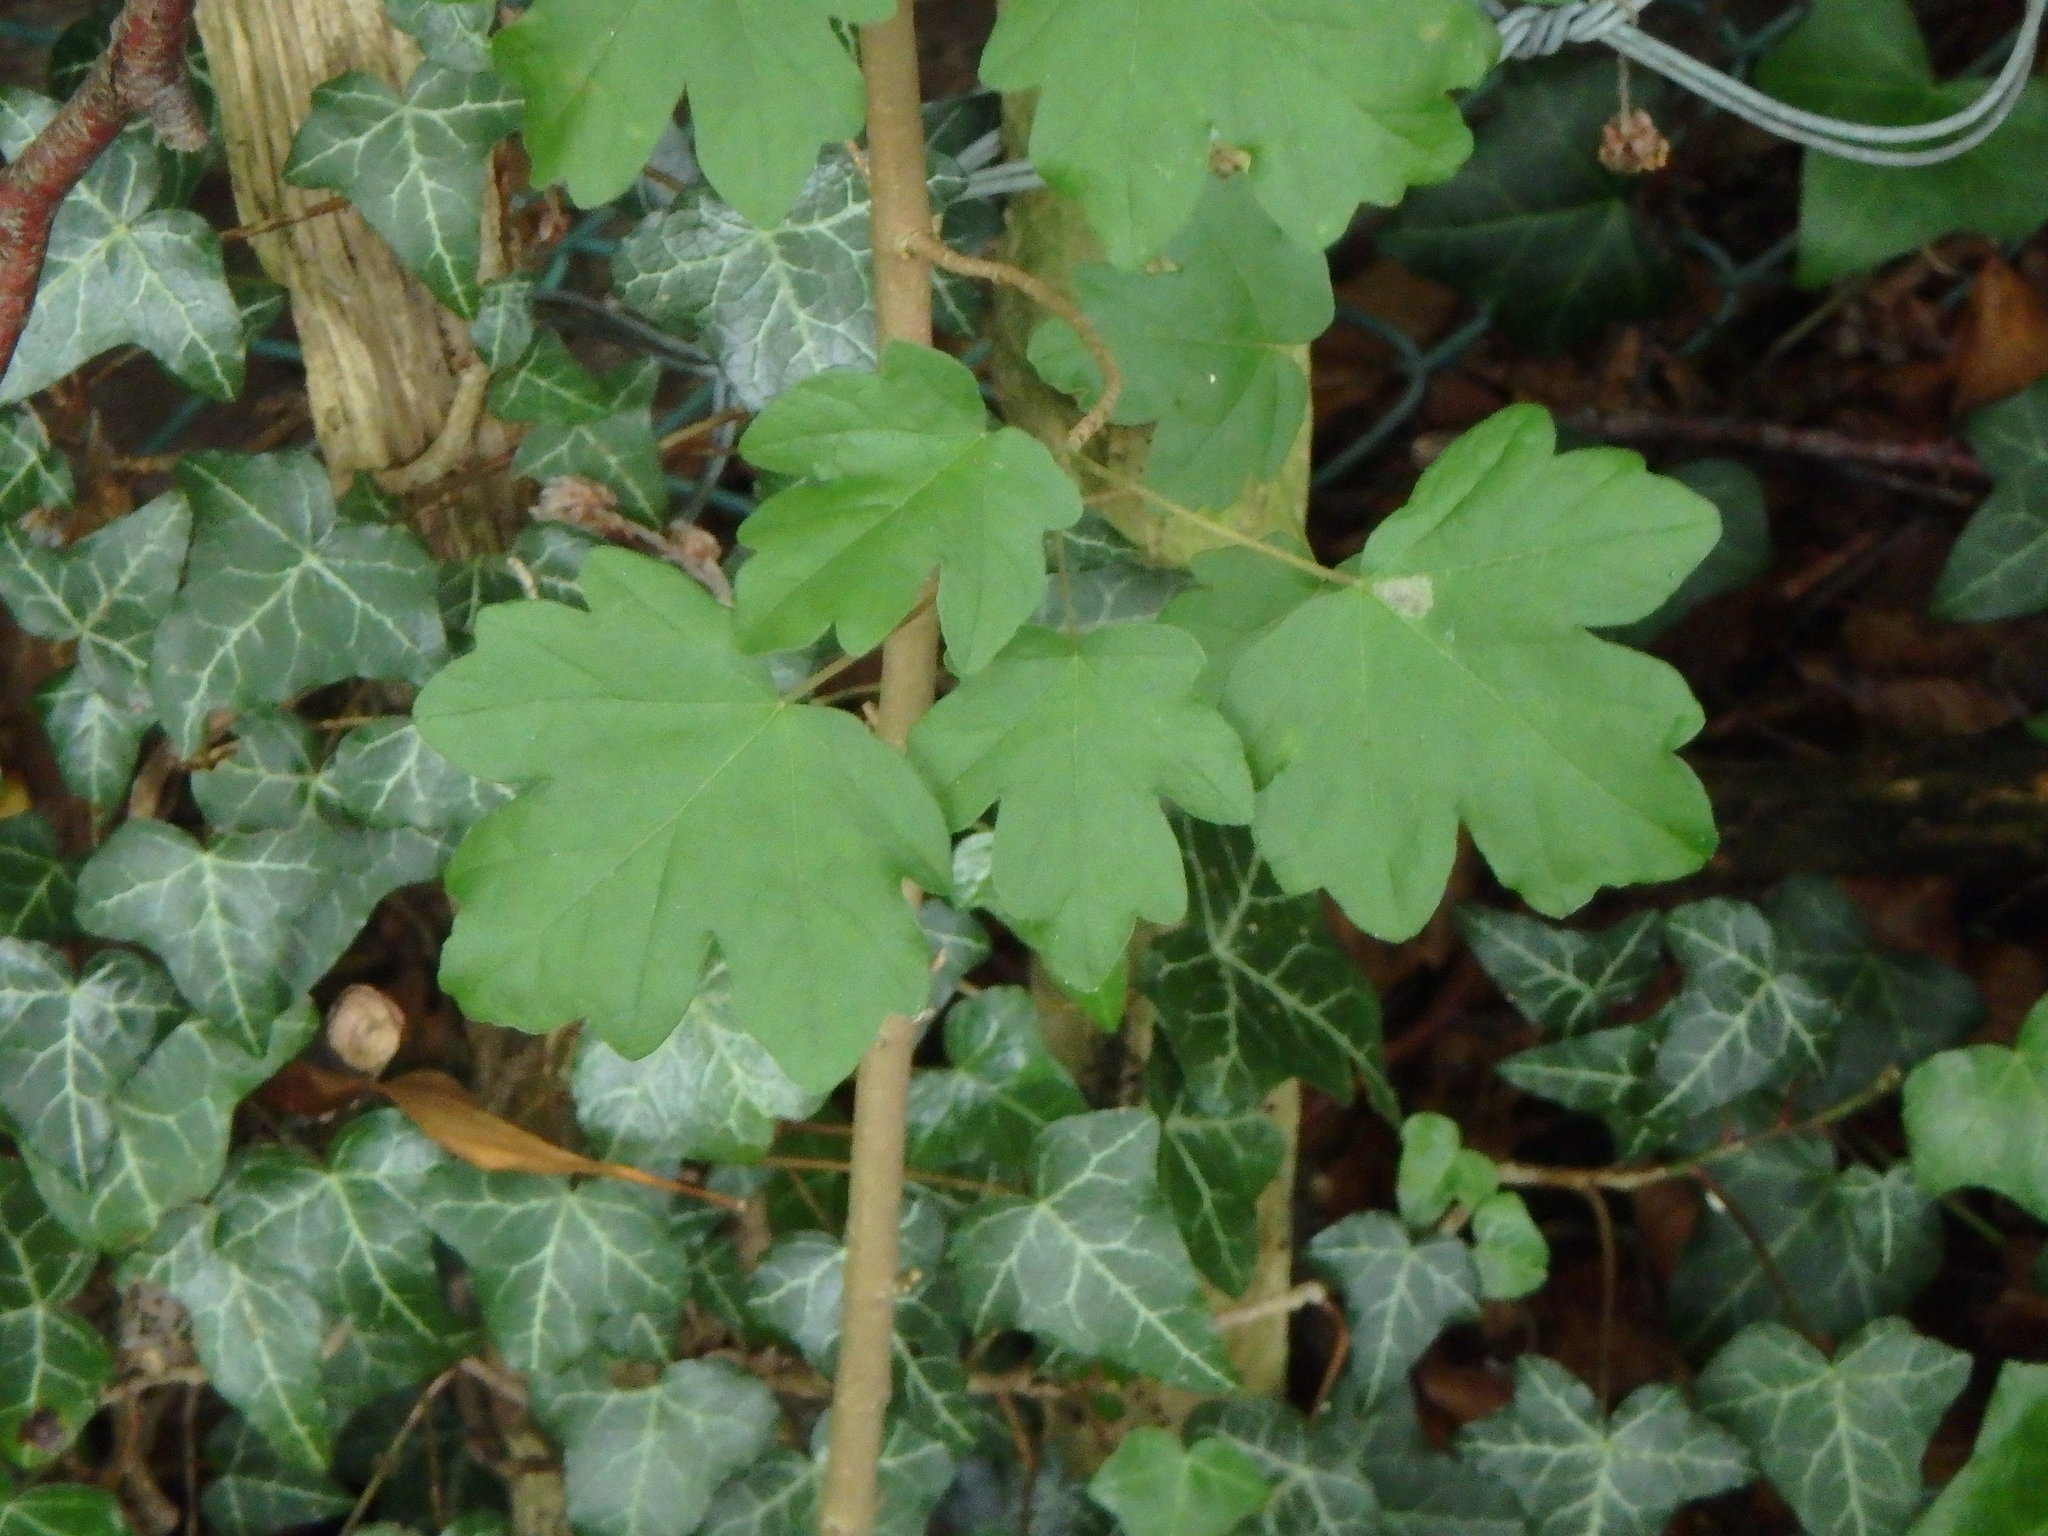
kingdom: Plantae
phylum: Tracheophyta
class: Magnoliopsida
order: Sapindales
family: Sapindaceae
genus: Acer
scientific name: Acer campestre
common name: Field maple
